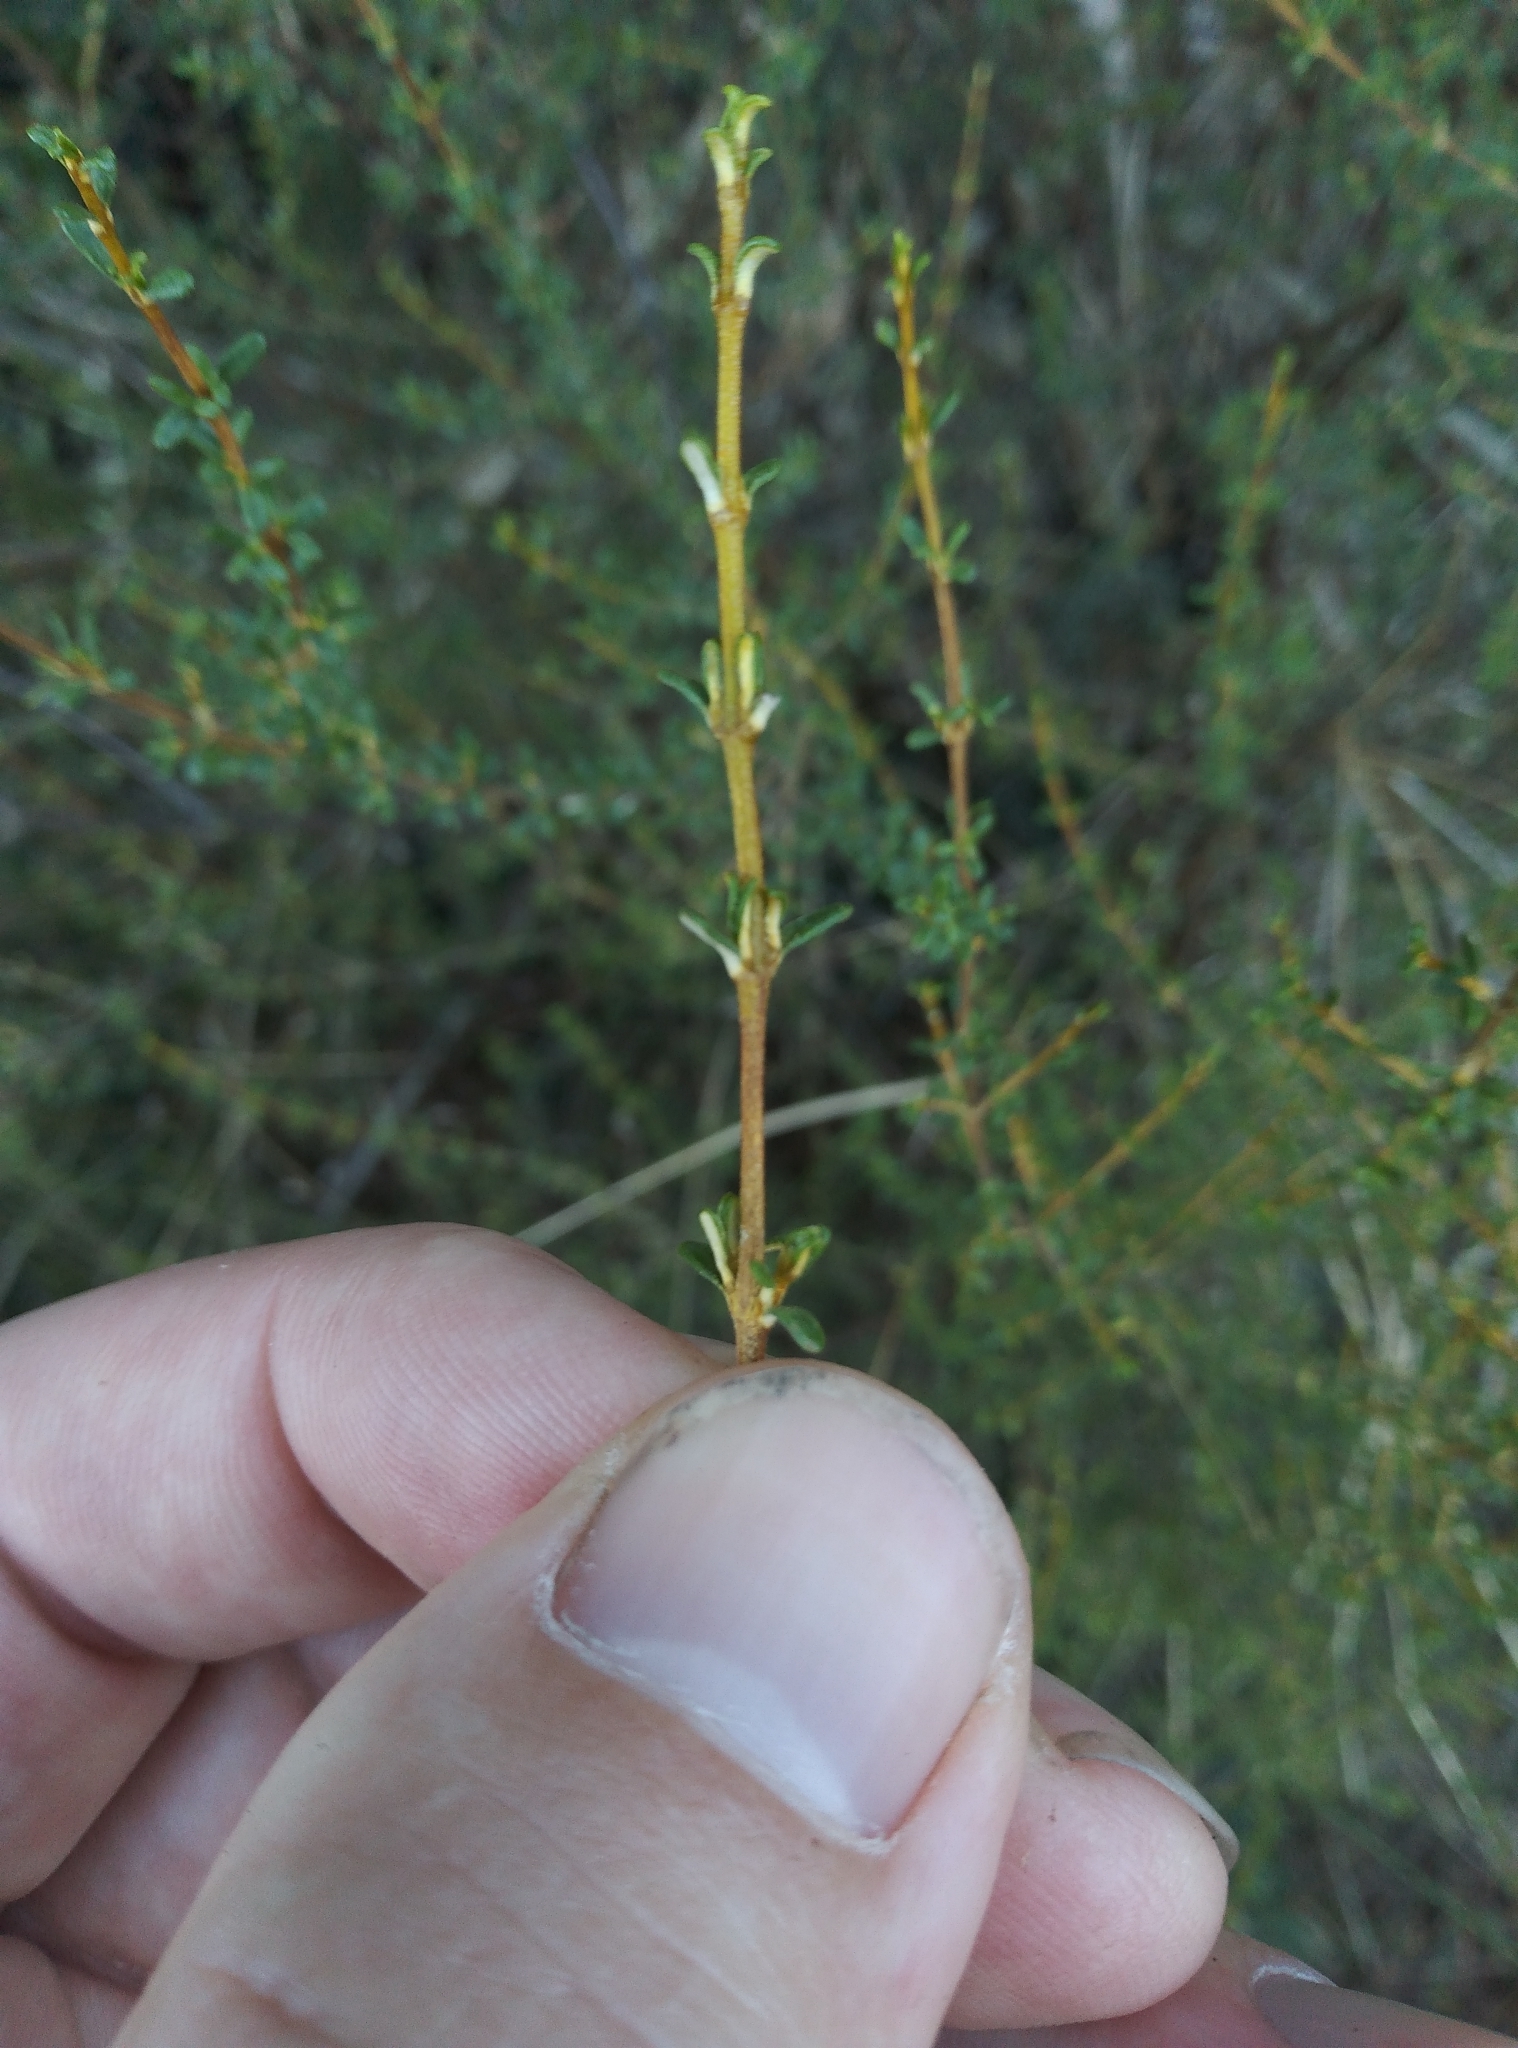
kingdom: Plantae
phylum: Tracheophyta
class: Magnoliopsida
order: Asterales
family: Asteraceae
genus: Olearia
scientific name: Olearia solandri
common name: Coastal daisybush
